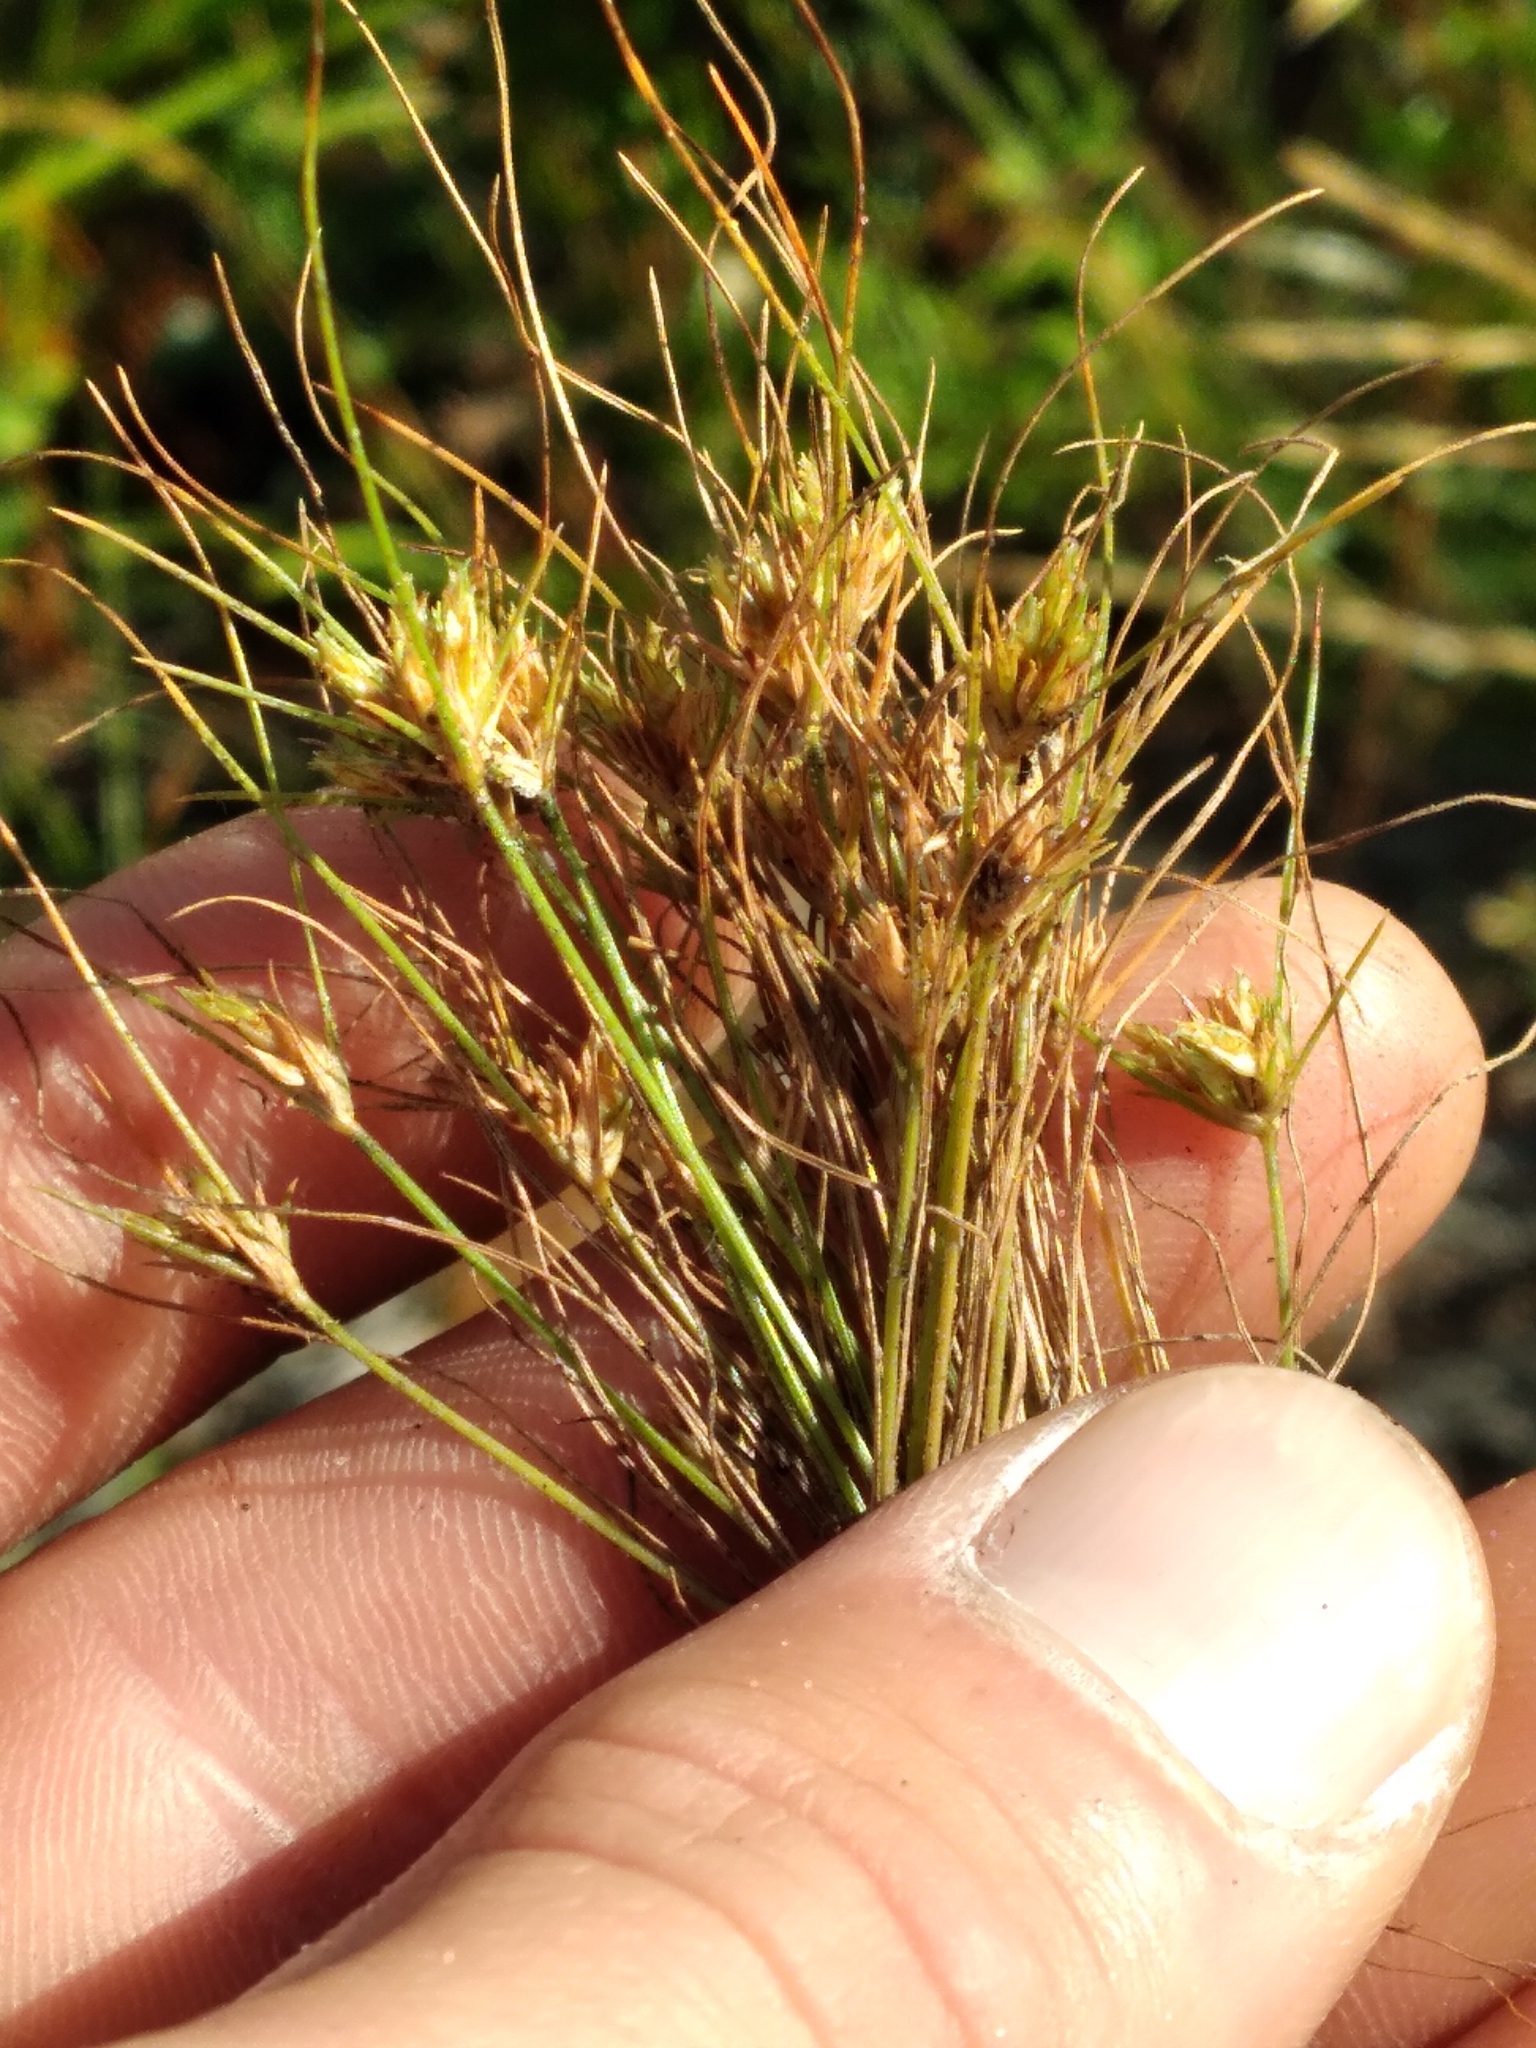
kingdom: Plantae
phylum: Tracheophyta
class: Liliopsida
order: Poales
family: Cyperaceae
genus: Bulbostylis
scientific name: Bulbostylis stenophylla
